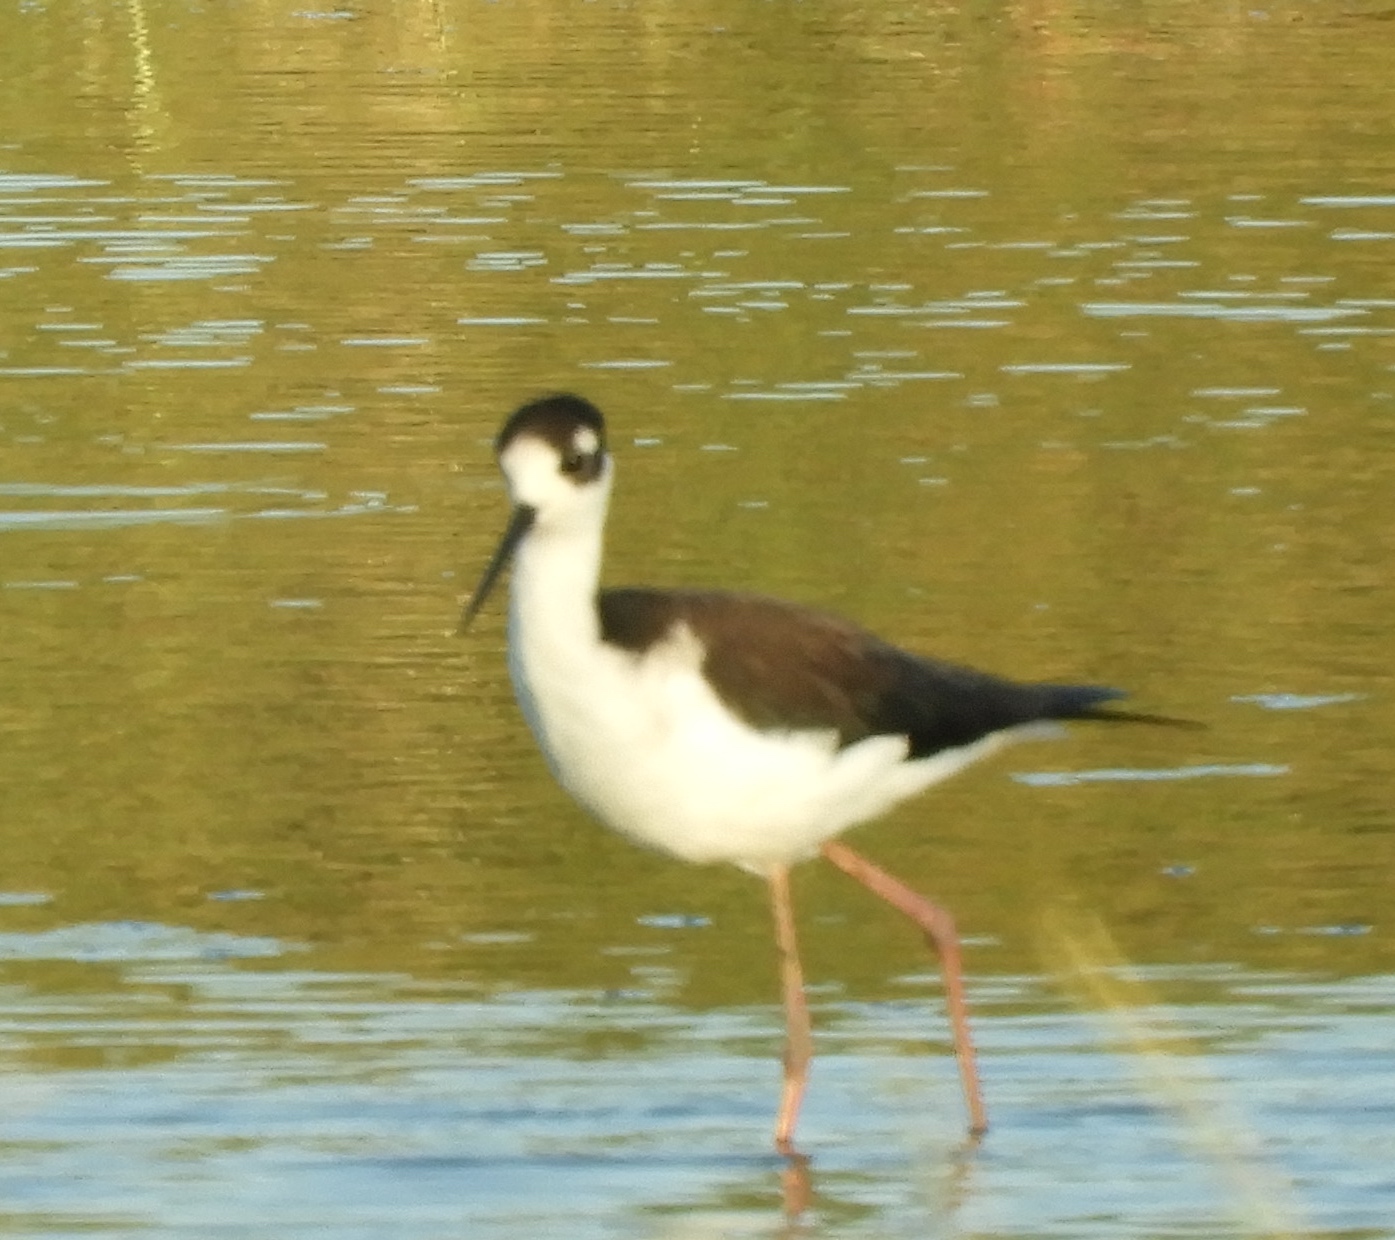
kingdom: Animalia
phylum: Chordata
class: Aves
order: Charadriiformes
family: Recurvirostridae
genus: Himantopus
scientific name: Himantopus mexicanus
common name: Black-necked stilt
